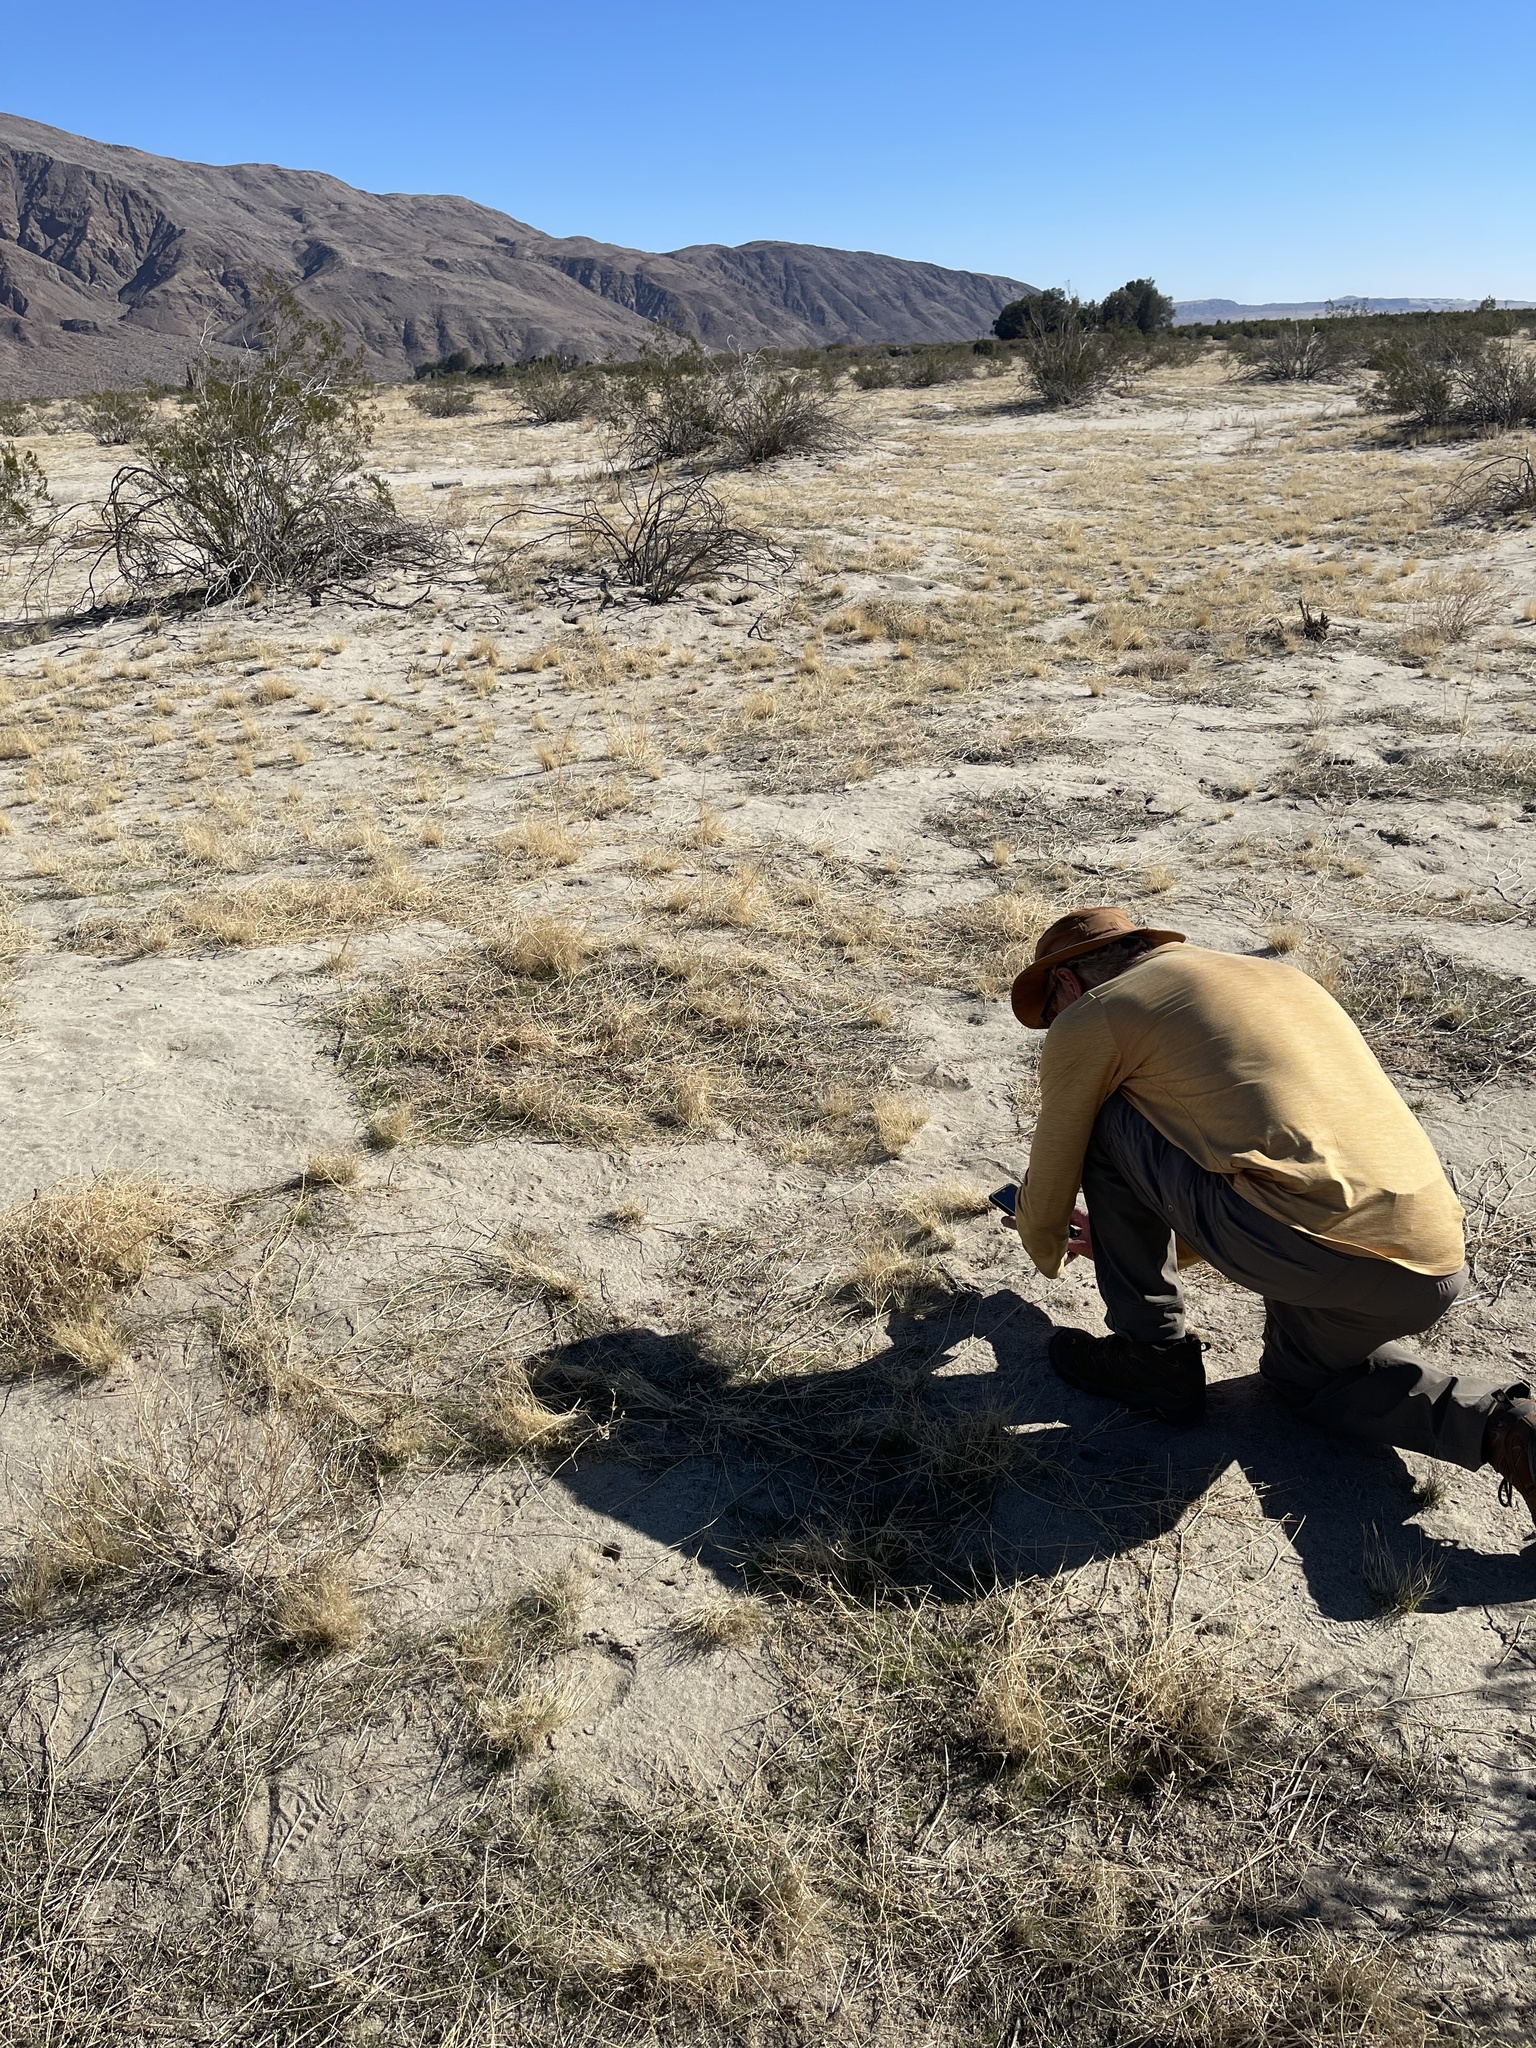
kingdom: Plantae
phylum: Tracheophyta
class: Liliopsida
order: Asparagales
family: Asparagaceae
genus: Hesperocallis
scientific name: Hesperocallis undulata
